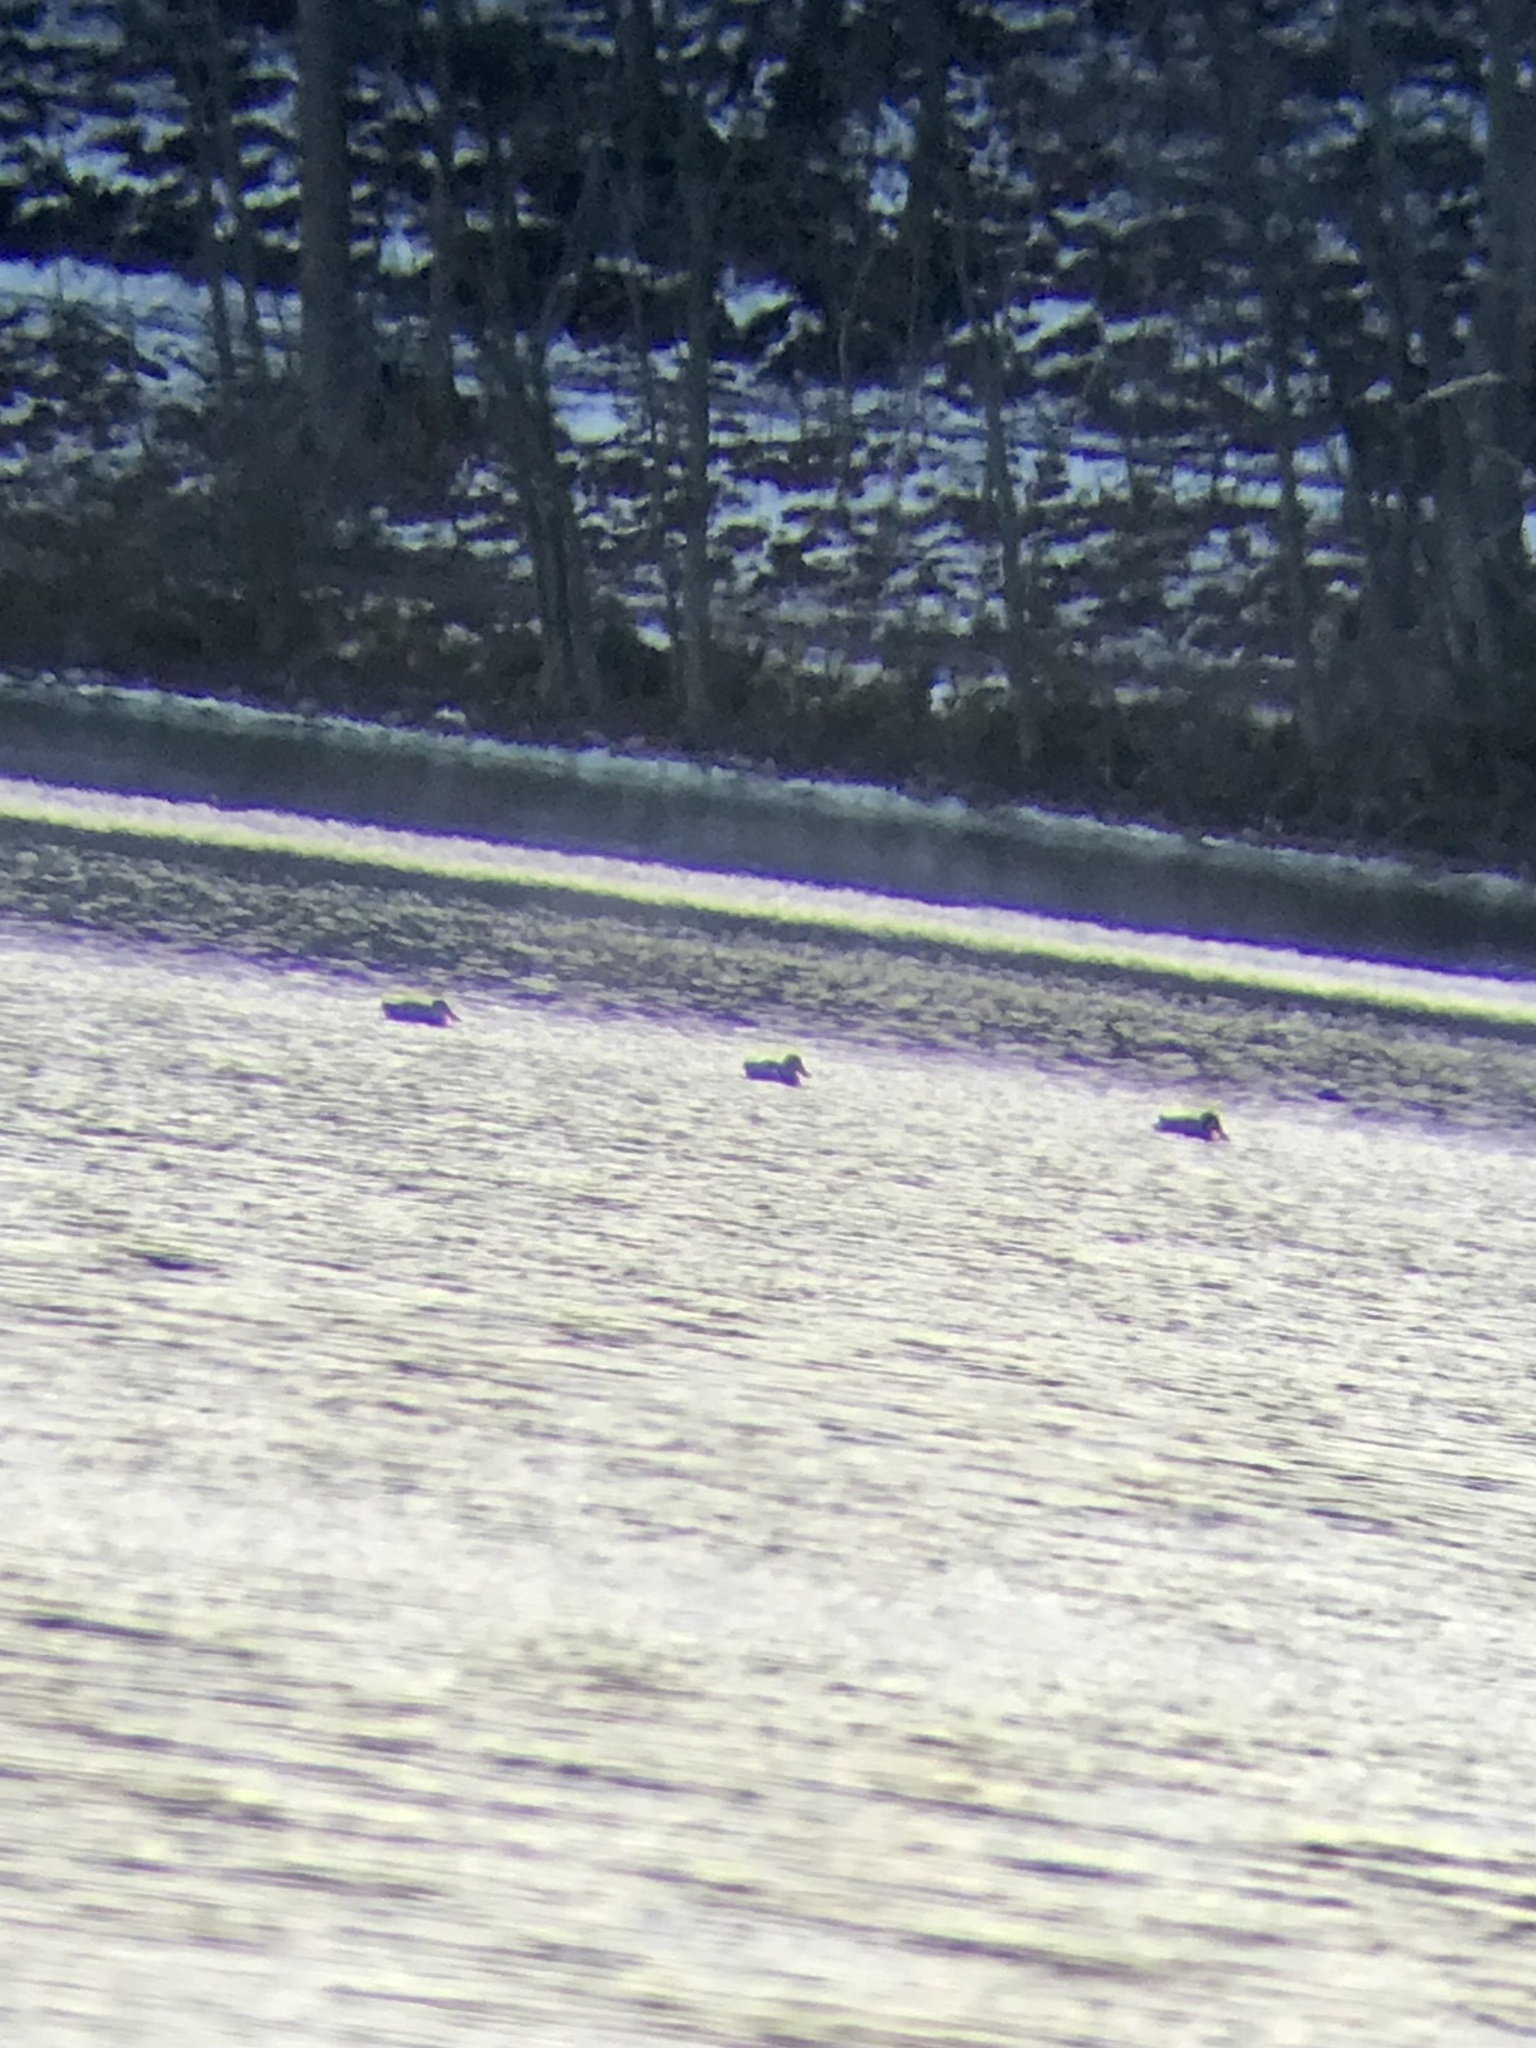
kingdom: Animalia
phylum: Chordata
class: Aves
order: Anseriformes
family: Anatidae
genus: Spatula
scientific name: Spatula clypeata
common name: Northern shoveler
